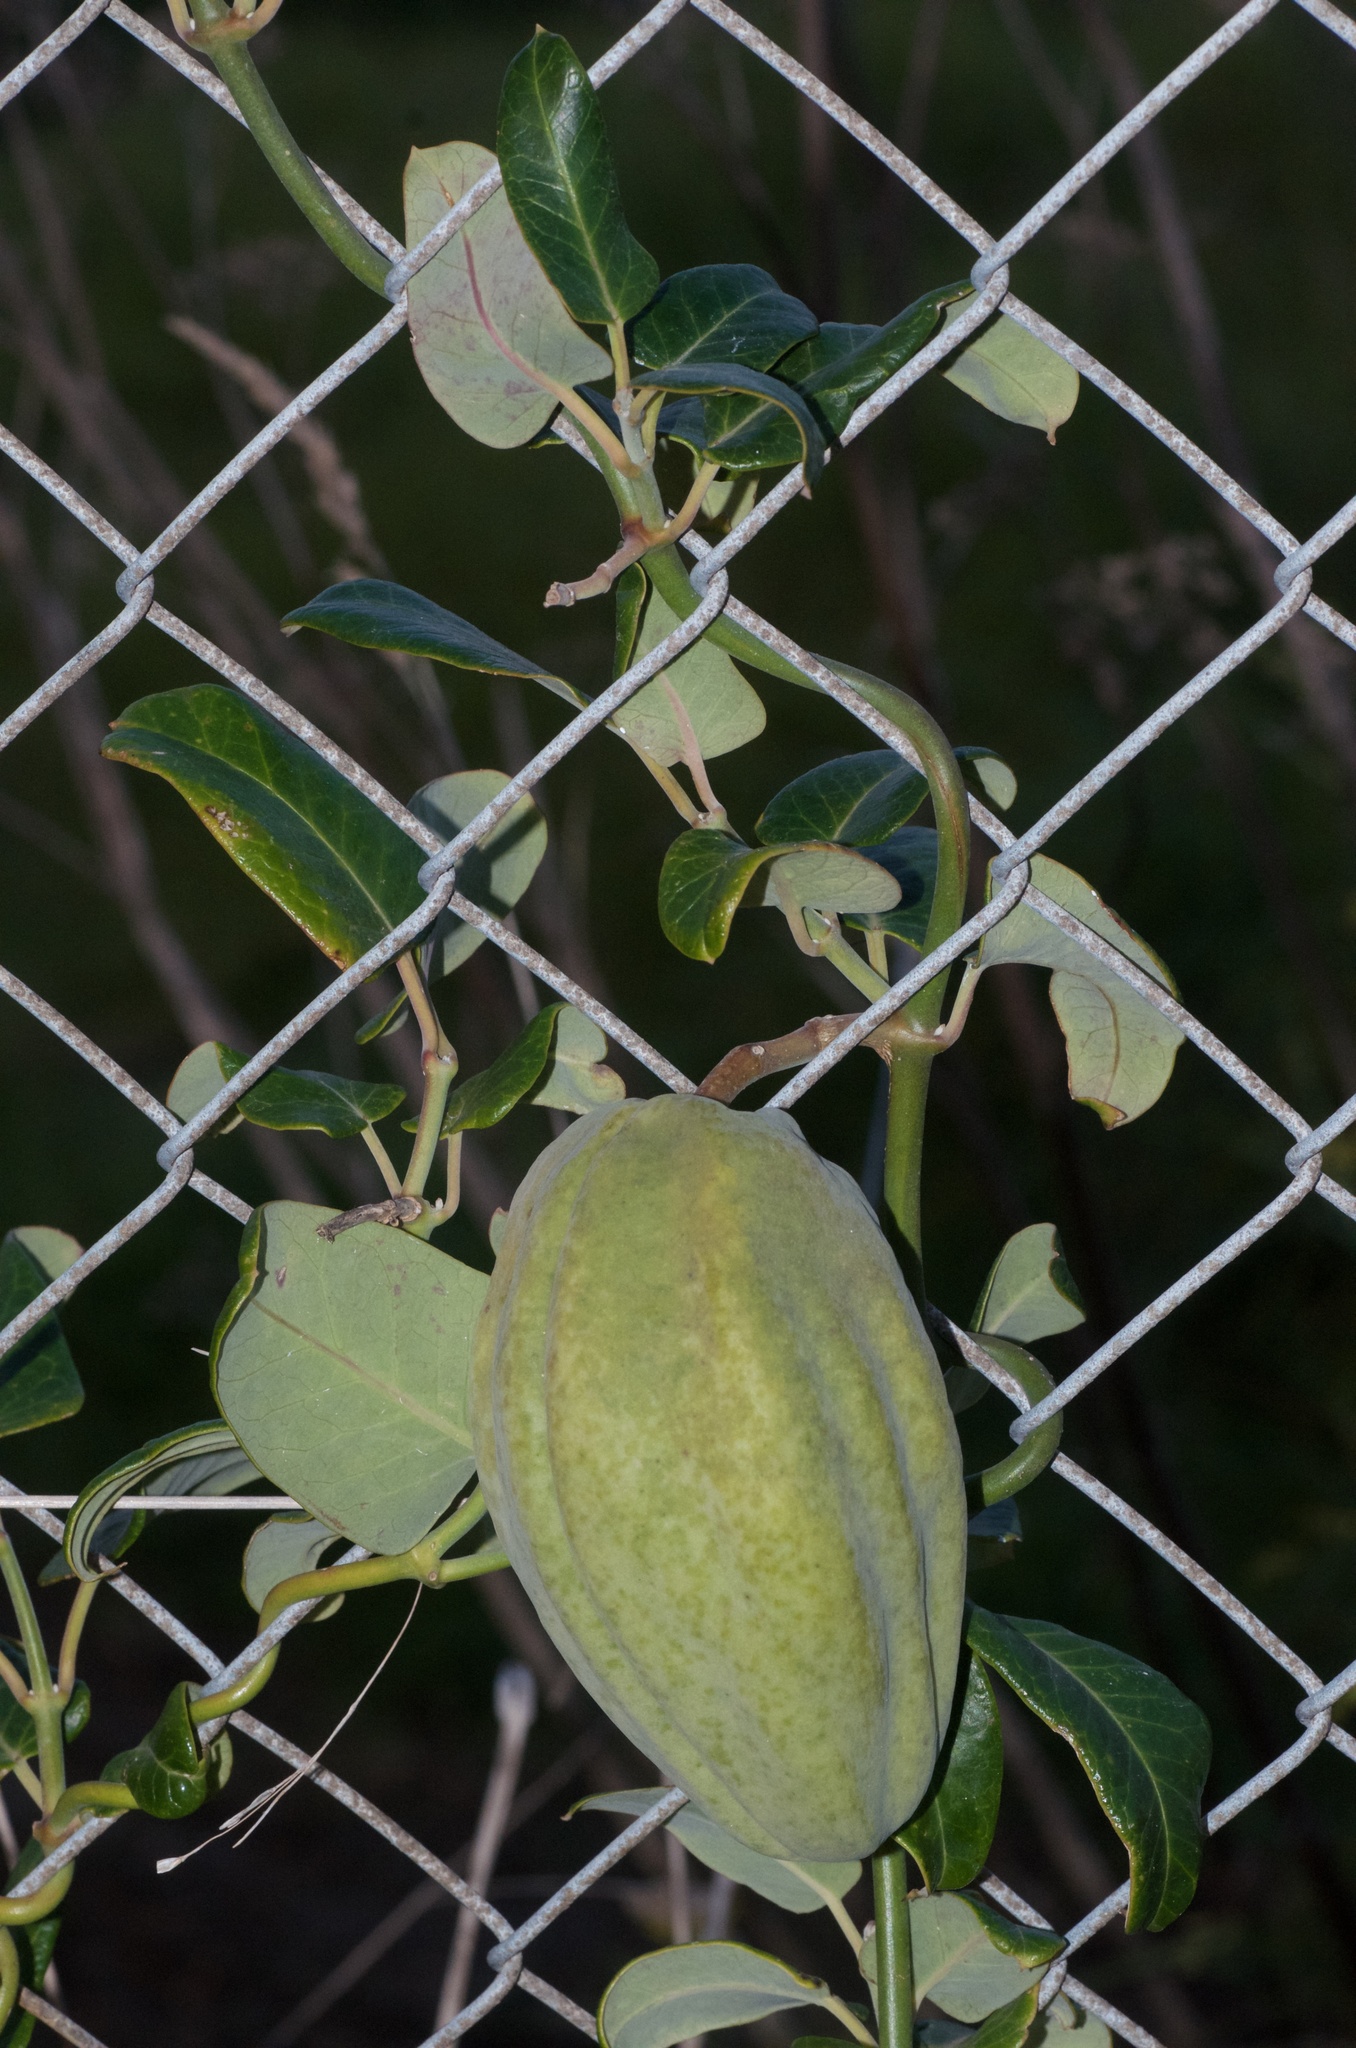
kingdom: Plantae
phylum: Tracheophyta
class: Magnoliopsida
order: Gentianales
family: Apocynaceae
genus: Araujia
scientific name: Araujia sericifera
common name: White bladderflower
